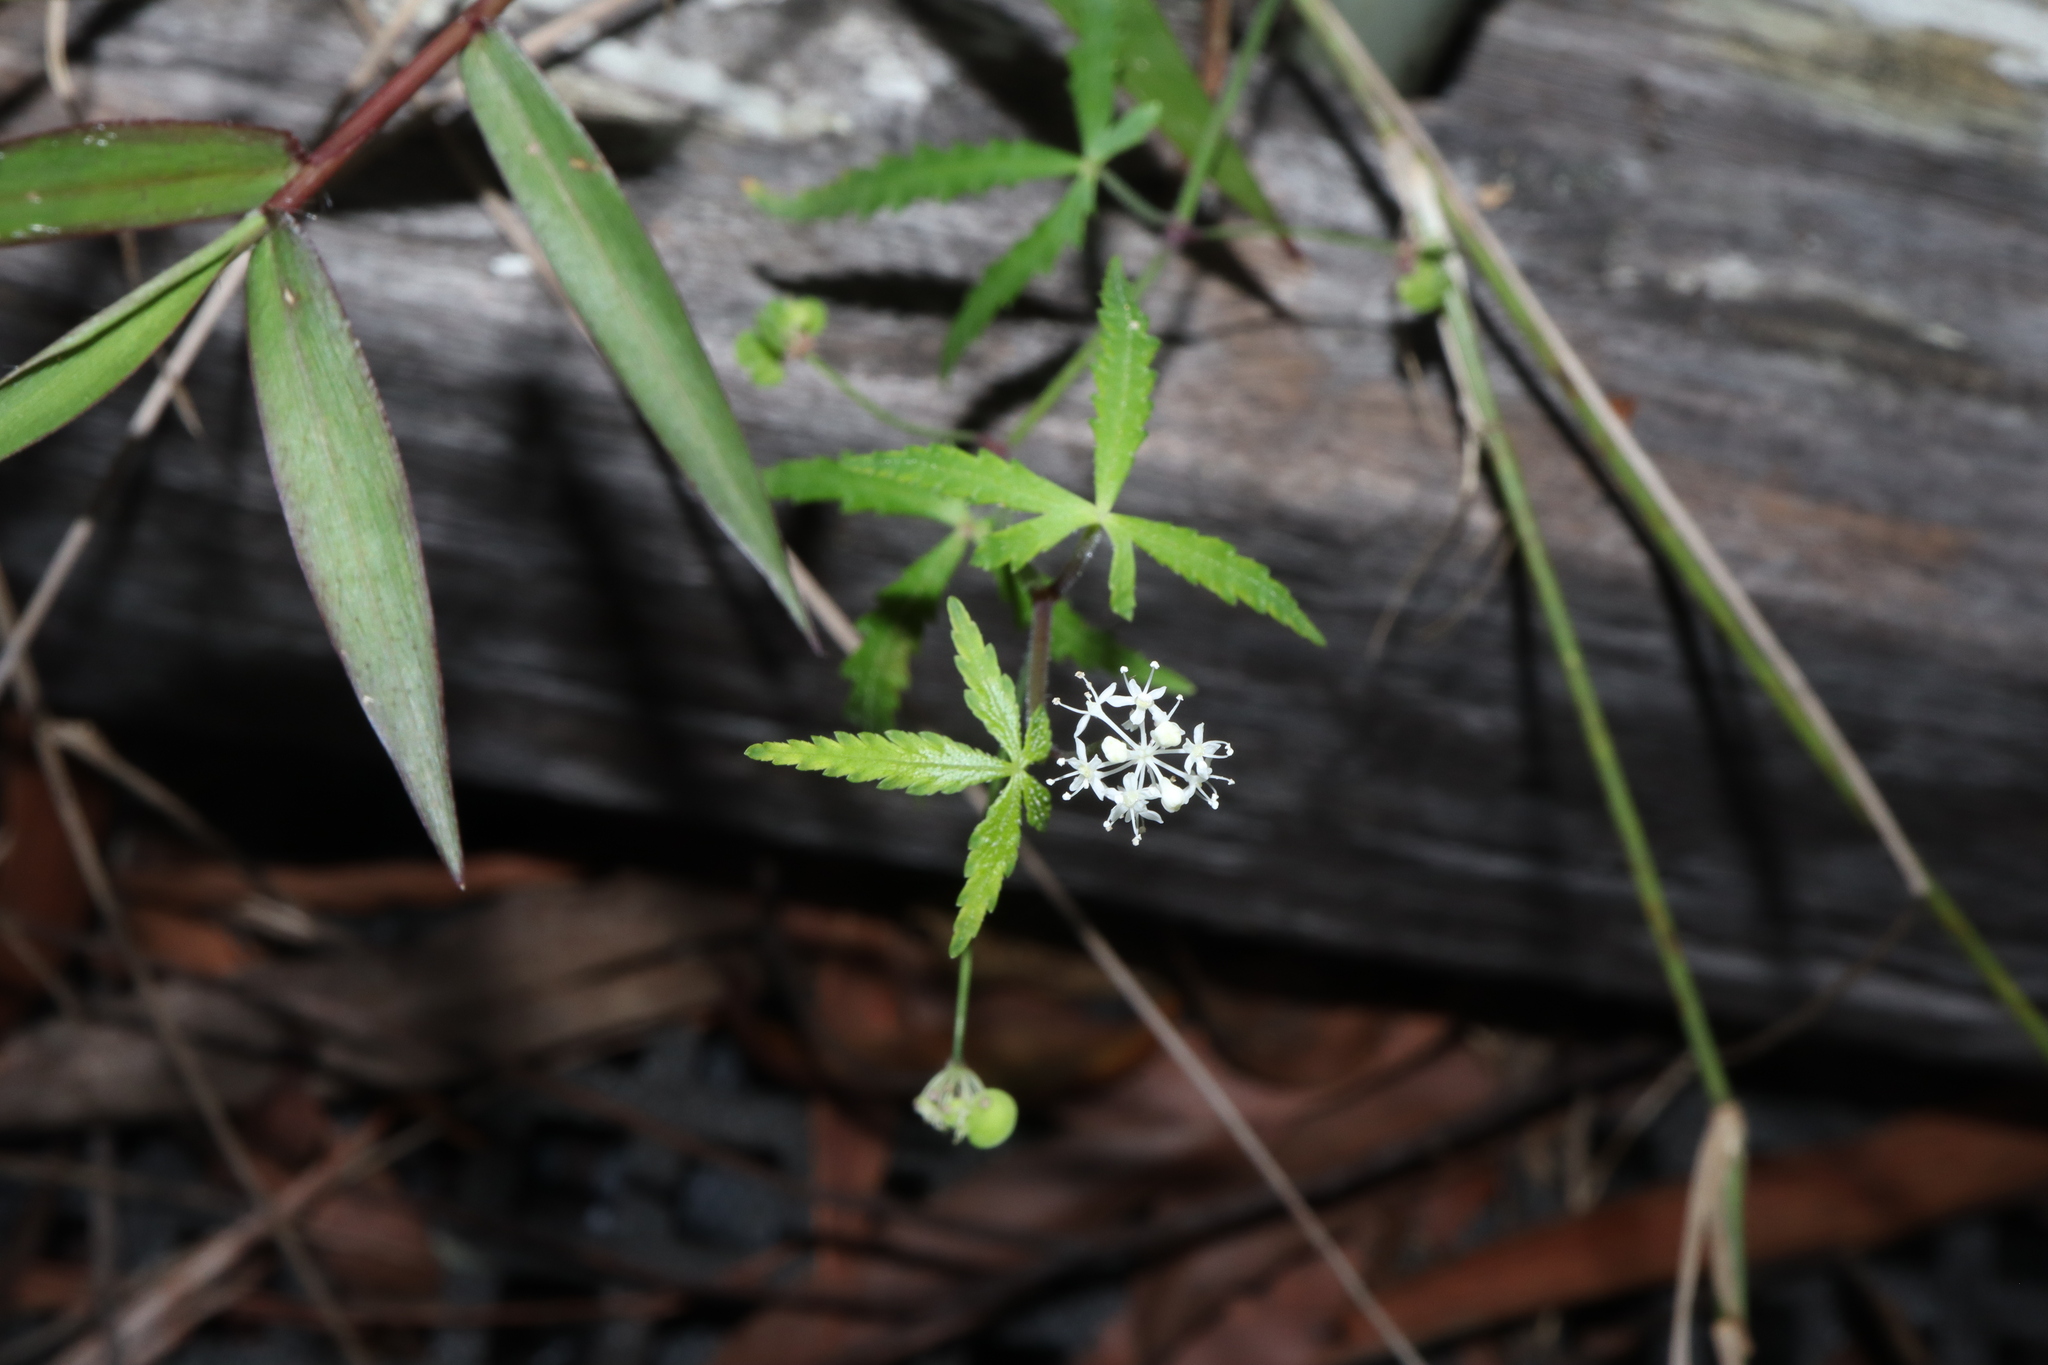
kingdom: Plantae
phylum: Tracheophyta
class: Magnoliopsida
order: Apiales
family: Araliaceae
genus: Hydrocotyle
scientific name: Hydrocotyle geraniifolia
